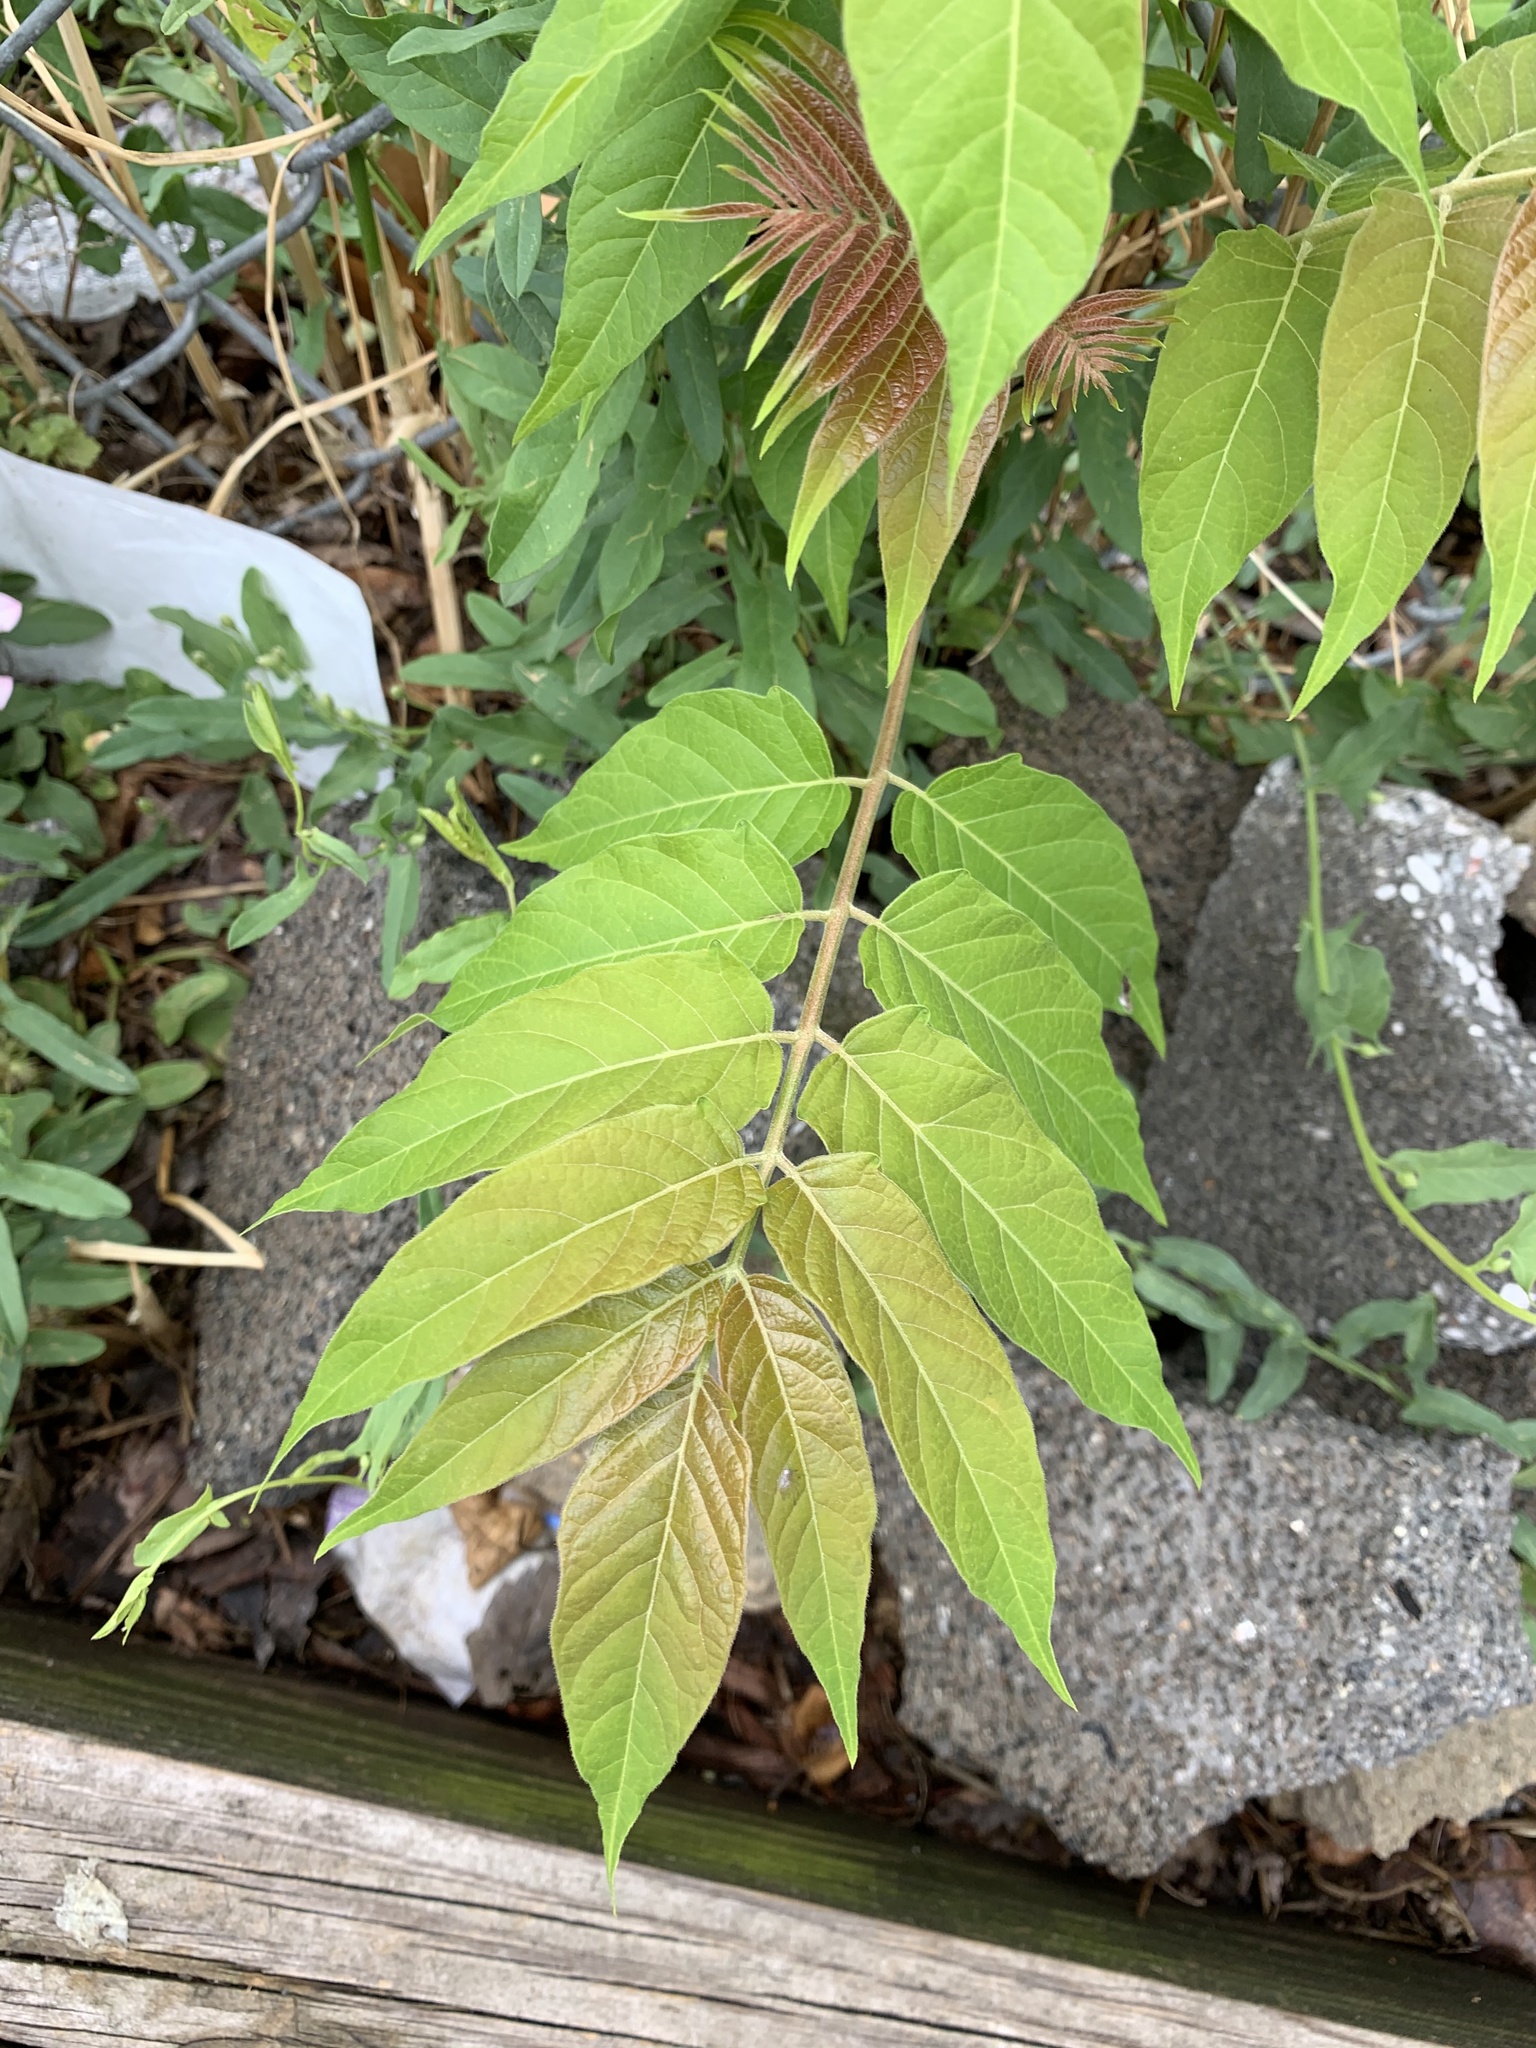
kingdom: Plantae
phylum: Tracheophyta
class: Magnoliopsida
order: Sapindales
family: Simaroubaceae
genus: Ailanthus
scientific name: Ailanthus altissima
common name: Tree-of-heaven
